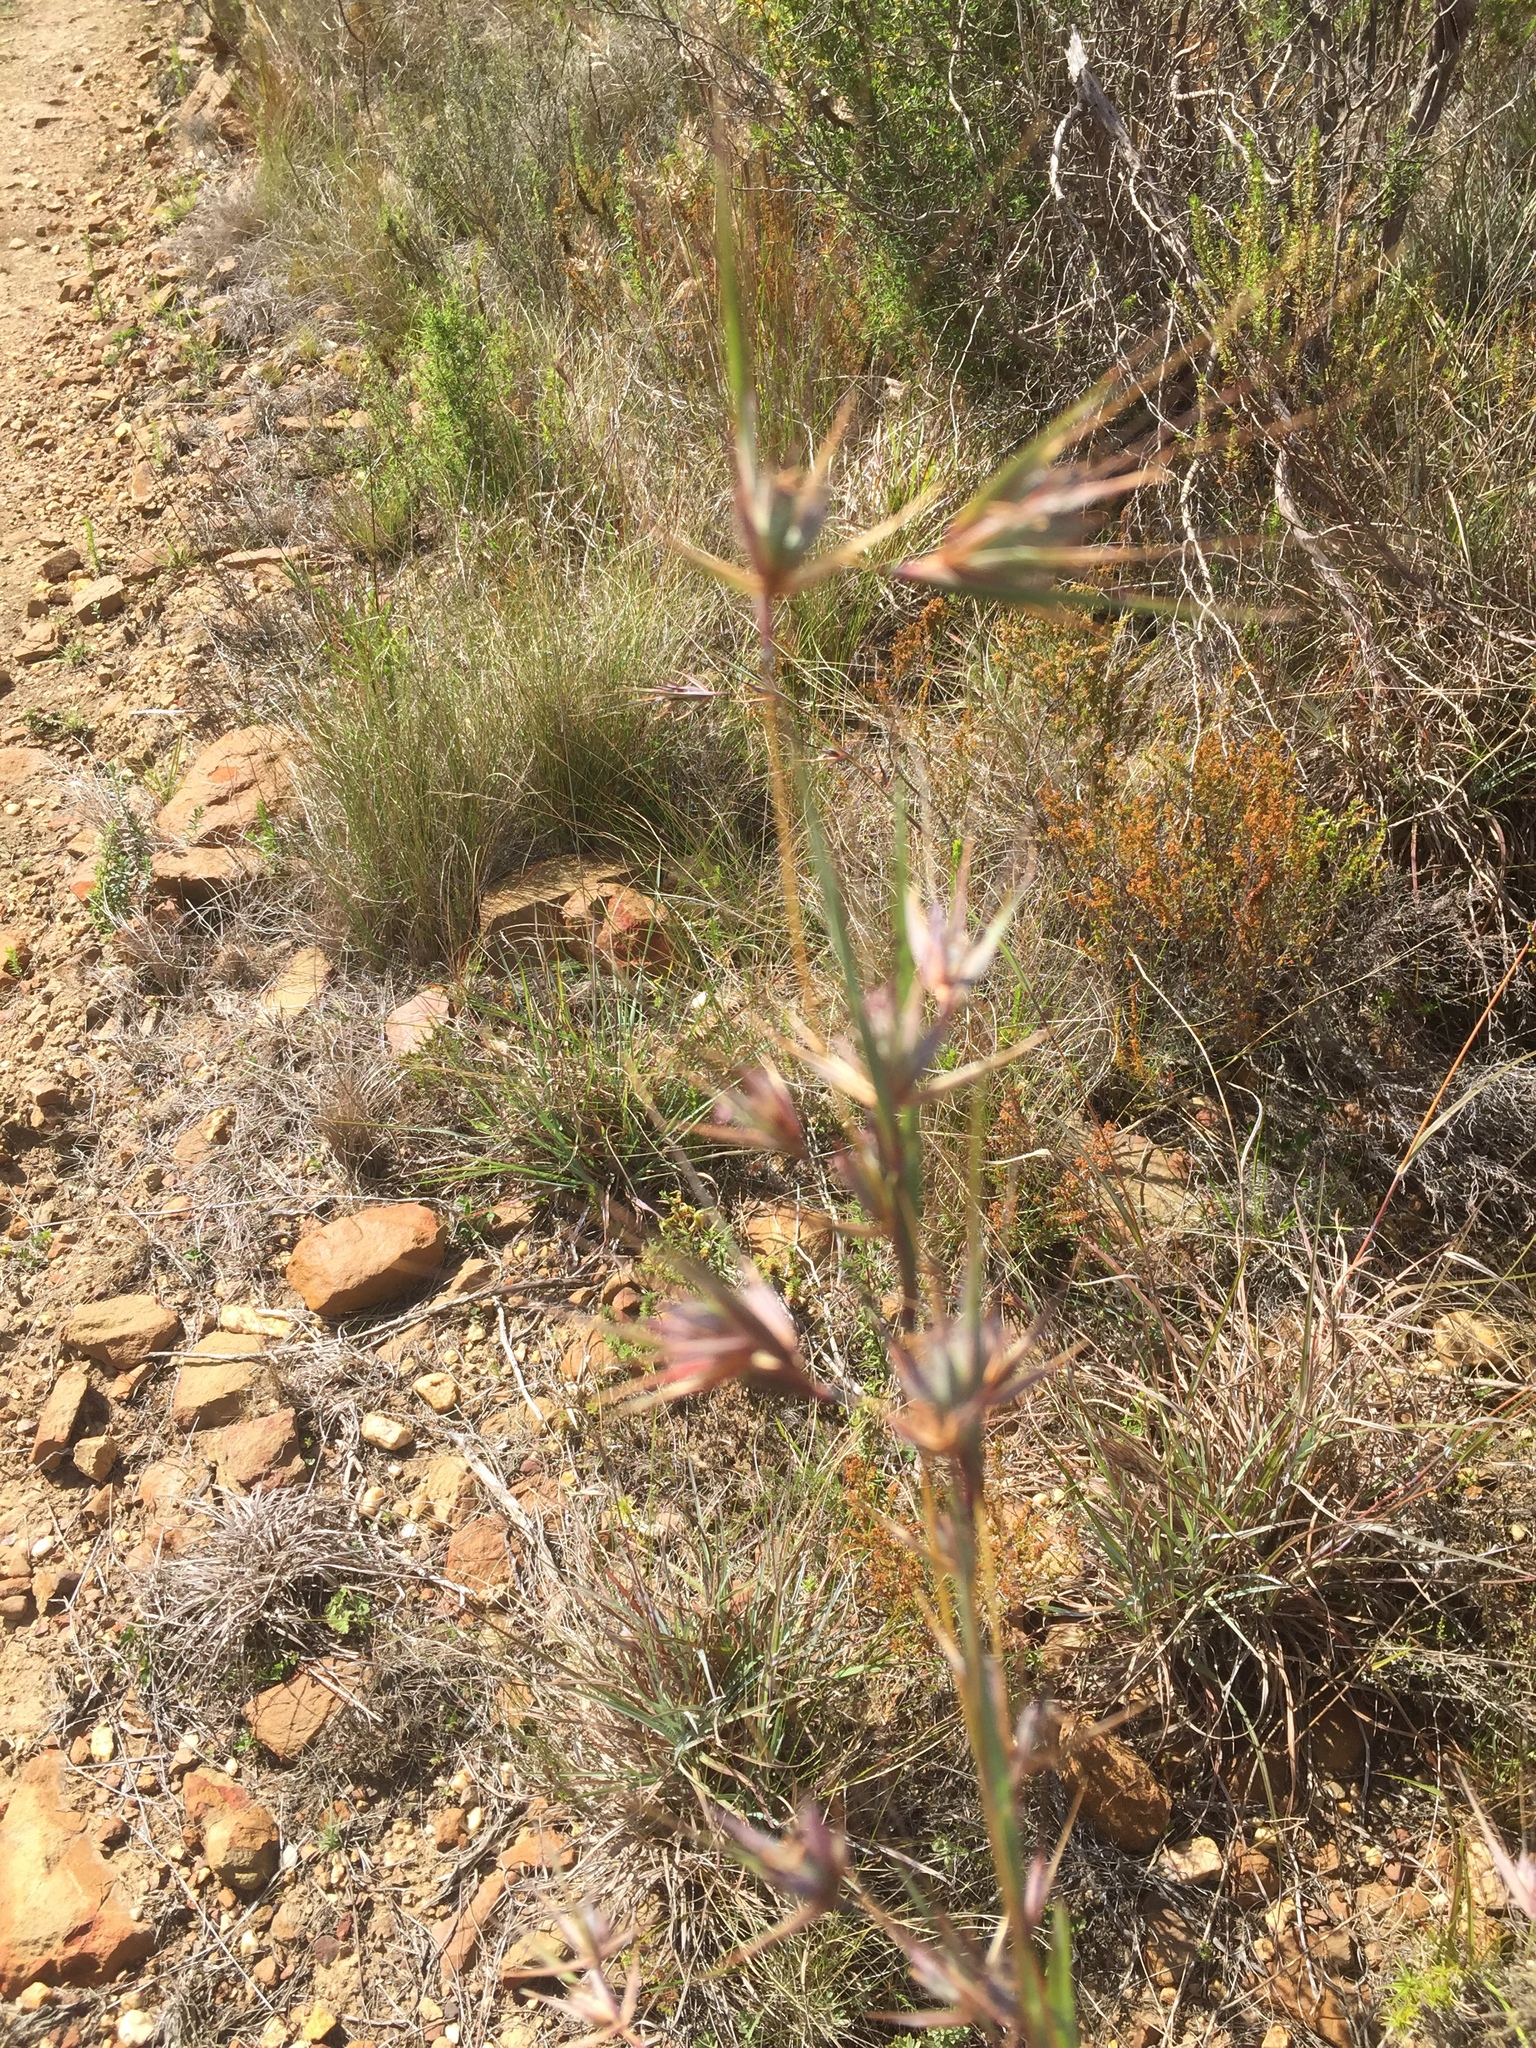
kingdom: Plantae
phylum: Tracheophyta
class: Liliopsida
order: Poales
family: Poaceae
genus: Hyparrhenia
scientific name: Hyparrhenia hirta
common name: Thatching grass
